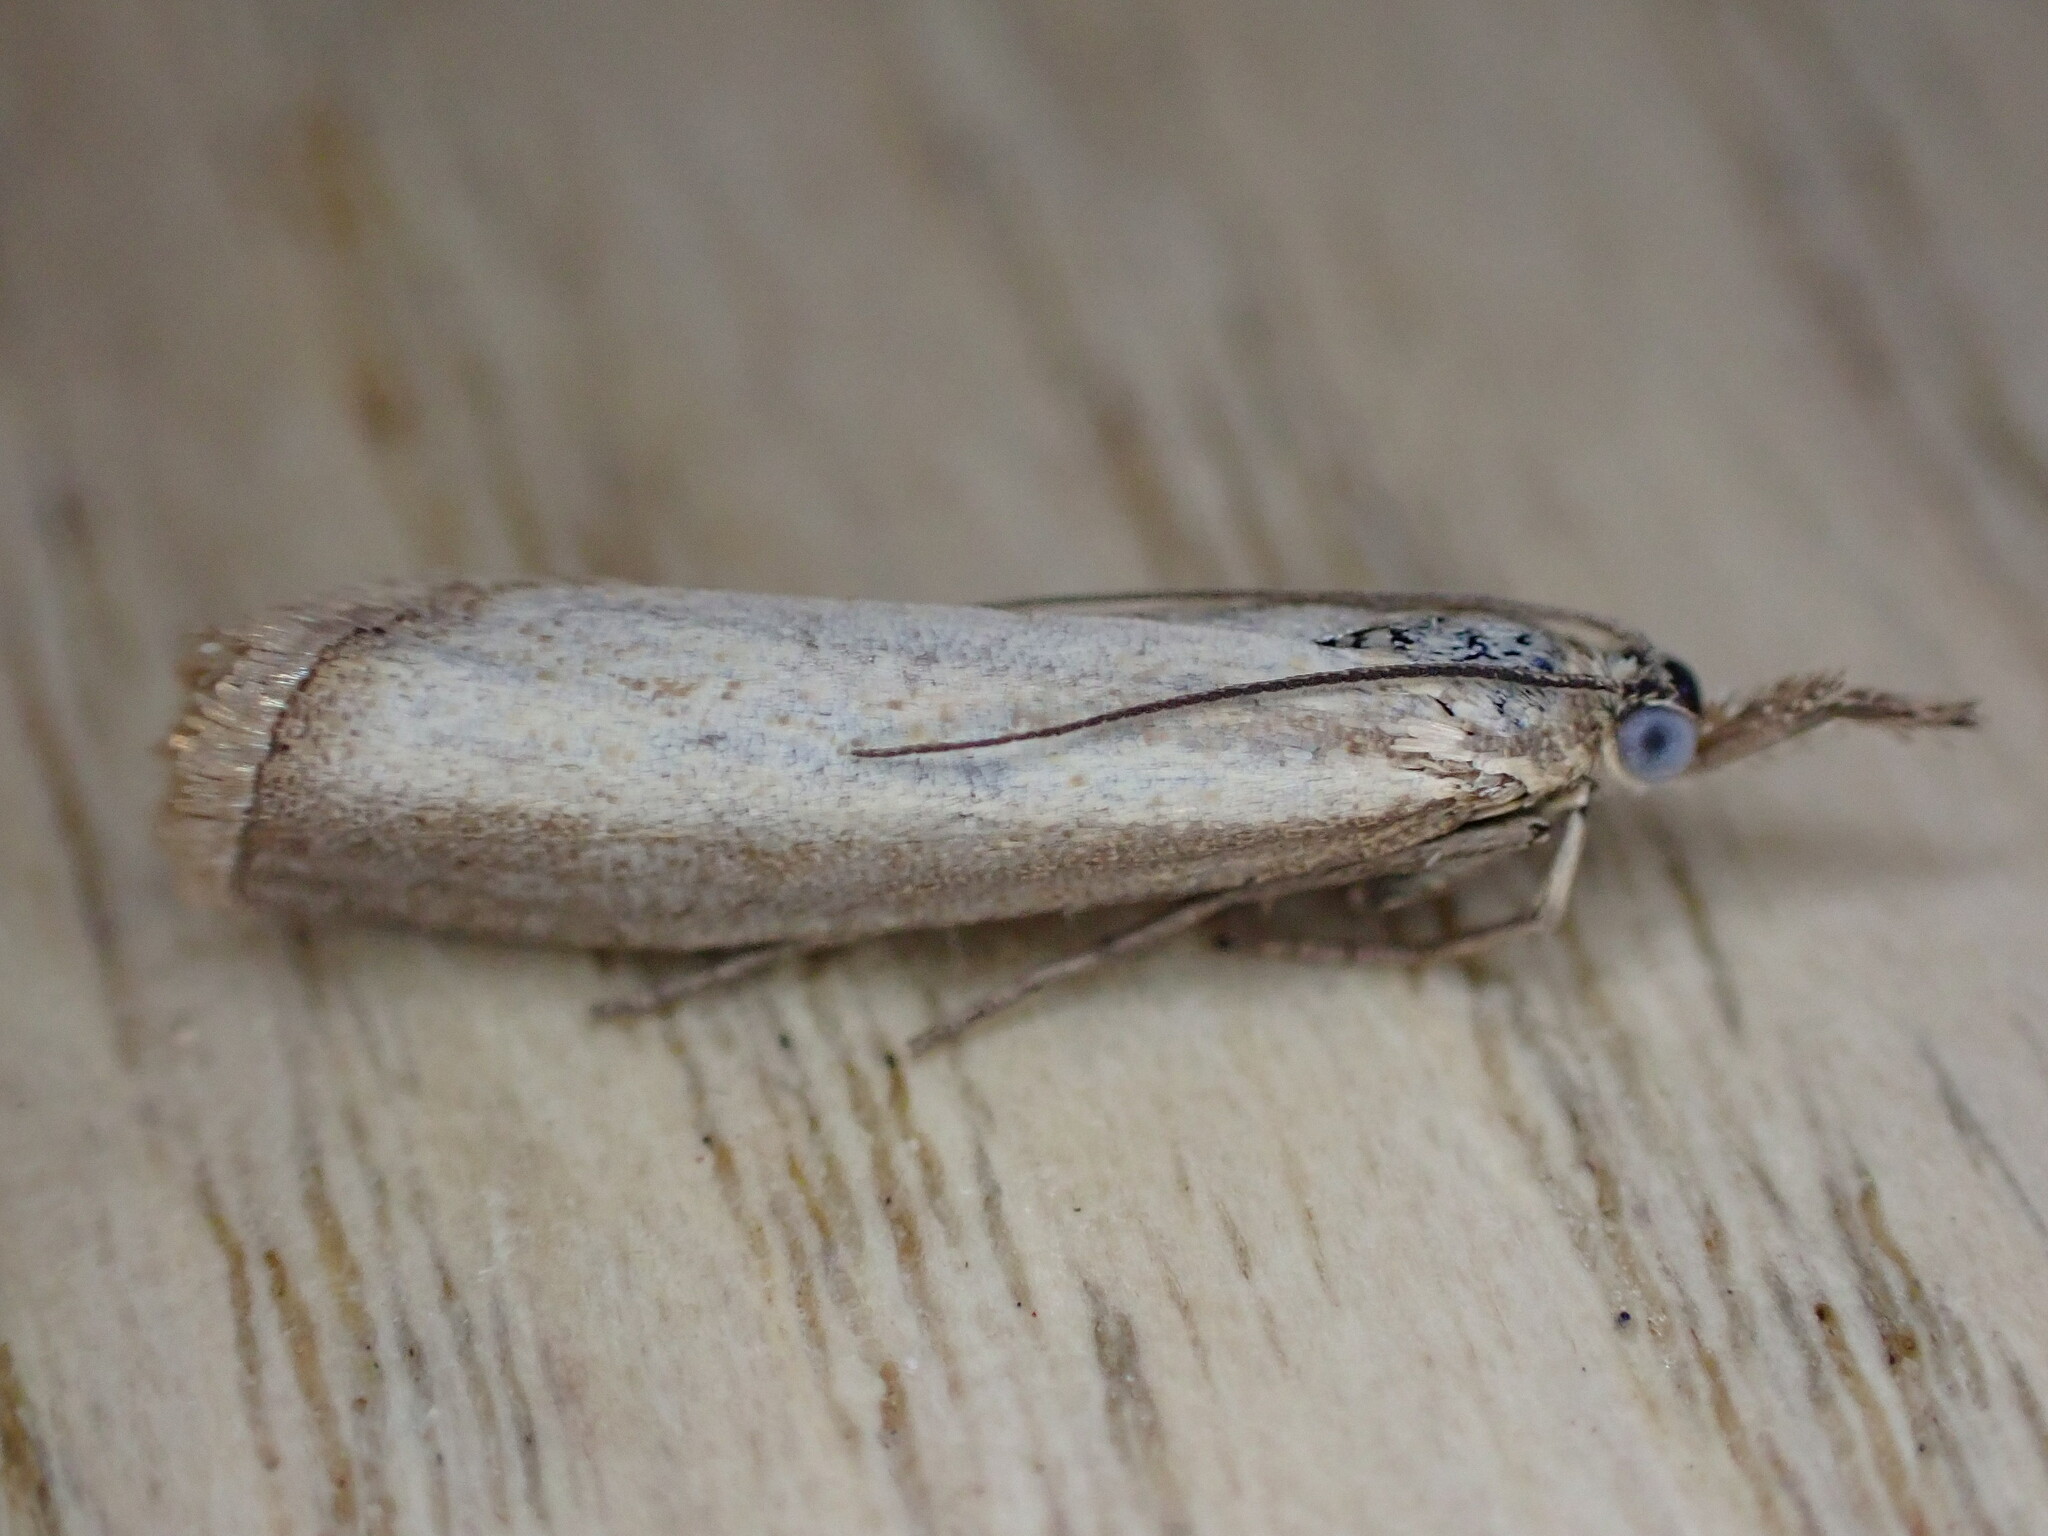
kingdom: Animalia
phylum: Arthropoda
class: Insecta
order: Lepidoptera
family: Crambidae
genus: Agriphila
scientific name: Agriphila straminella
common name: Straw grass-veneer
